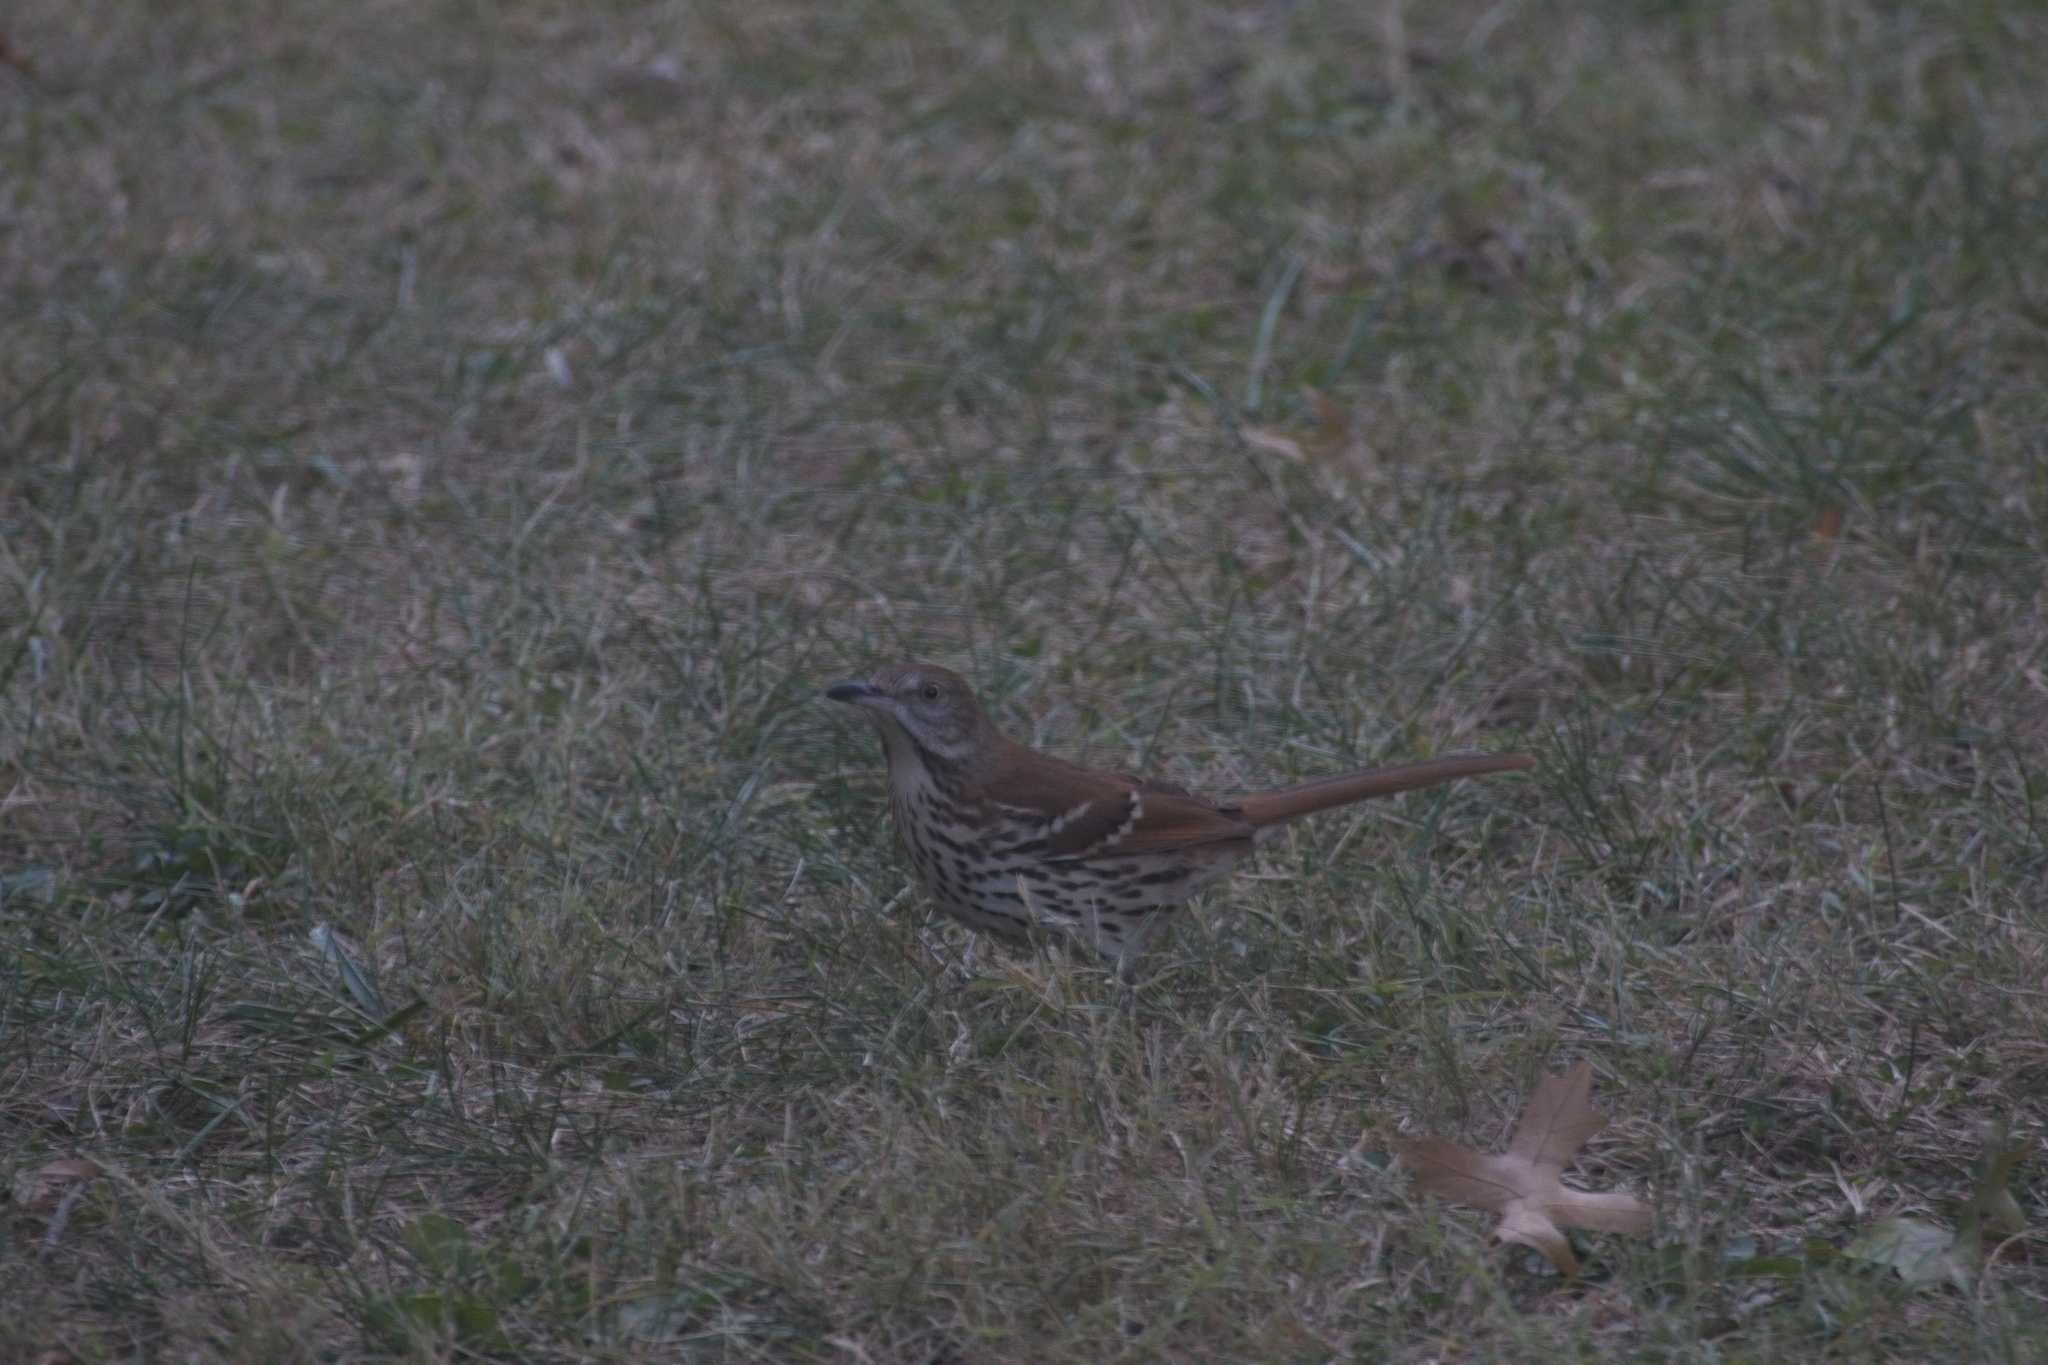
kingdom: Animalia
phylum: Chordata
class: Aves
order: Passeriformes
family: Mimidae
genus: Toxostoma
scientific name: Toxostoma rufum
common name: Brown thrasher
